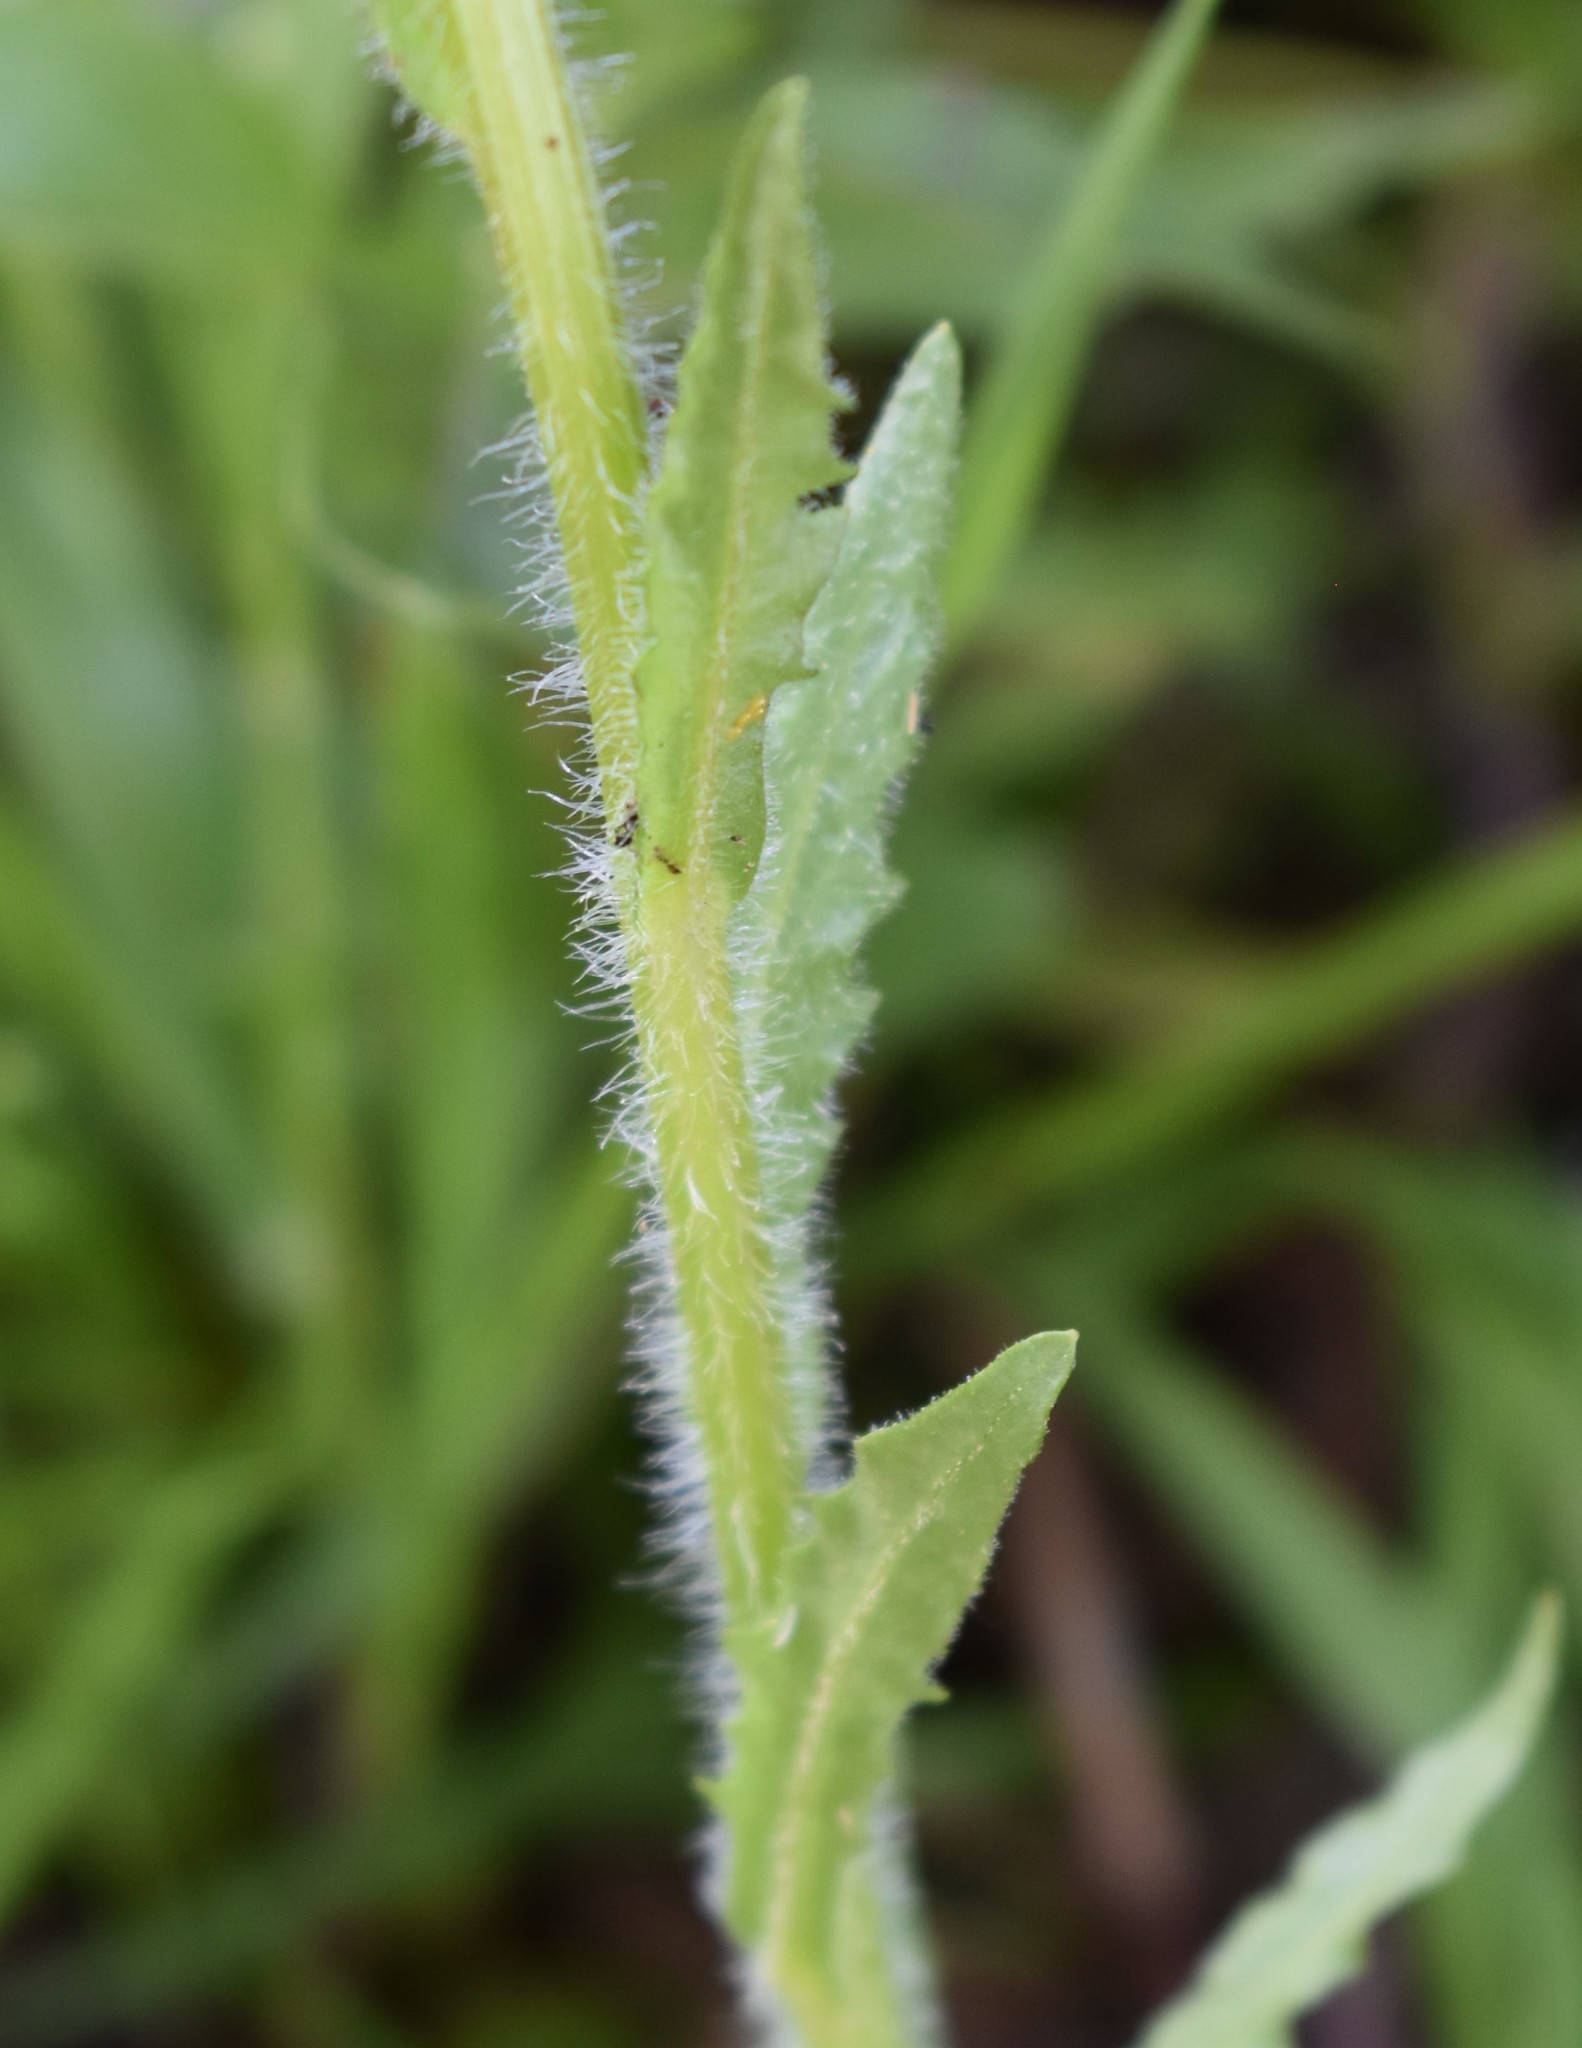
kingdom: Plantae
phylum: Tracheophyta
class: Magnoliopsida
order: Asterales
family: Asteraceae
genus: Tephroseris
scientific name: Tephroseris palustris
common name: Marsh fleawort
